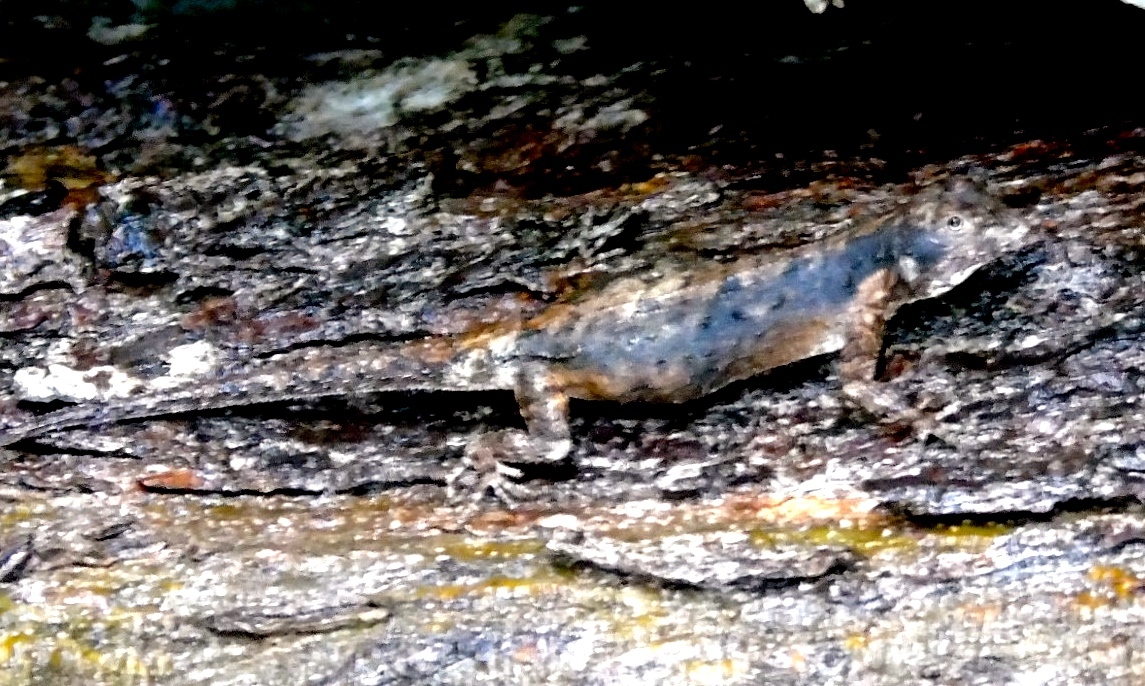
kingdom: Animalia
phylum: Chordata
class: Squamata
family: Phrynosomatidae
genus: Urosaurus
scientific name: Urosaurus bicarinatus
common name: Tropical tree lizard
